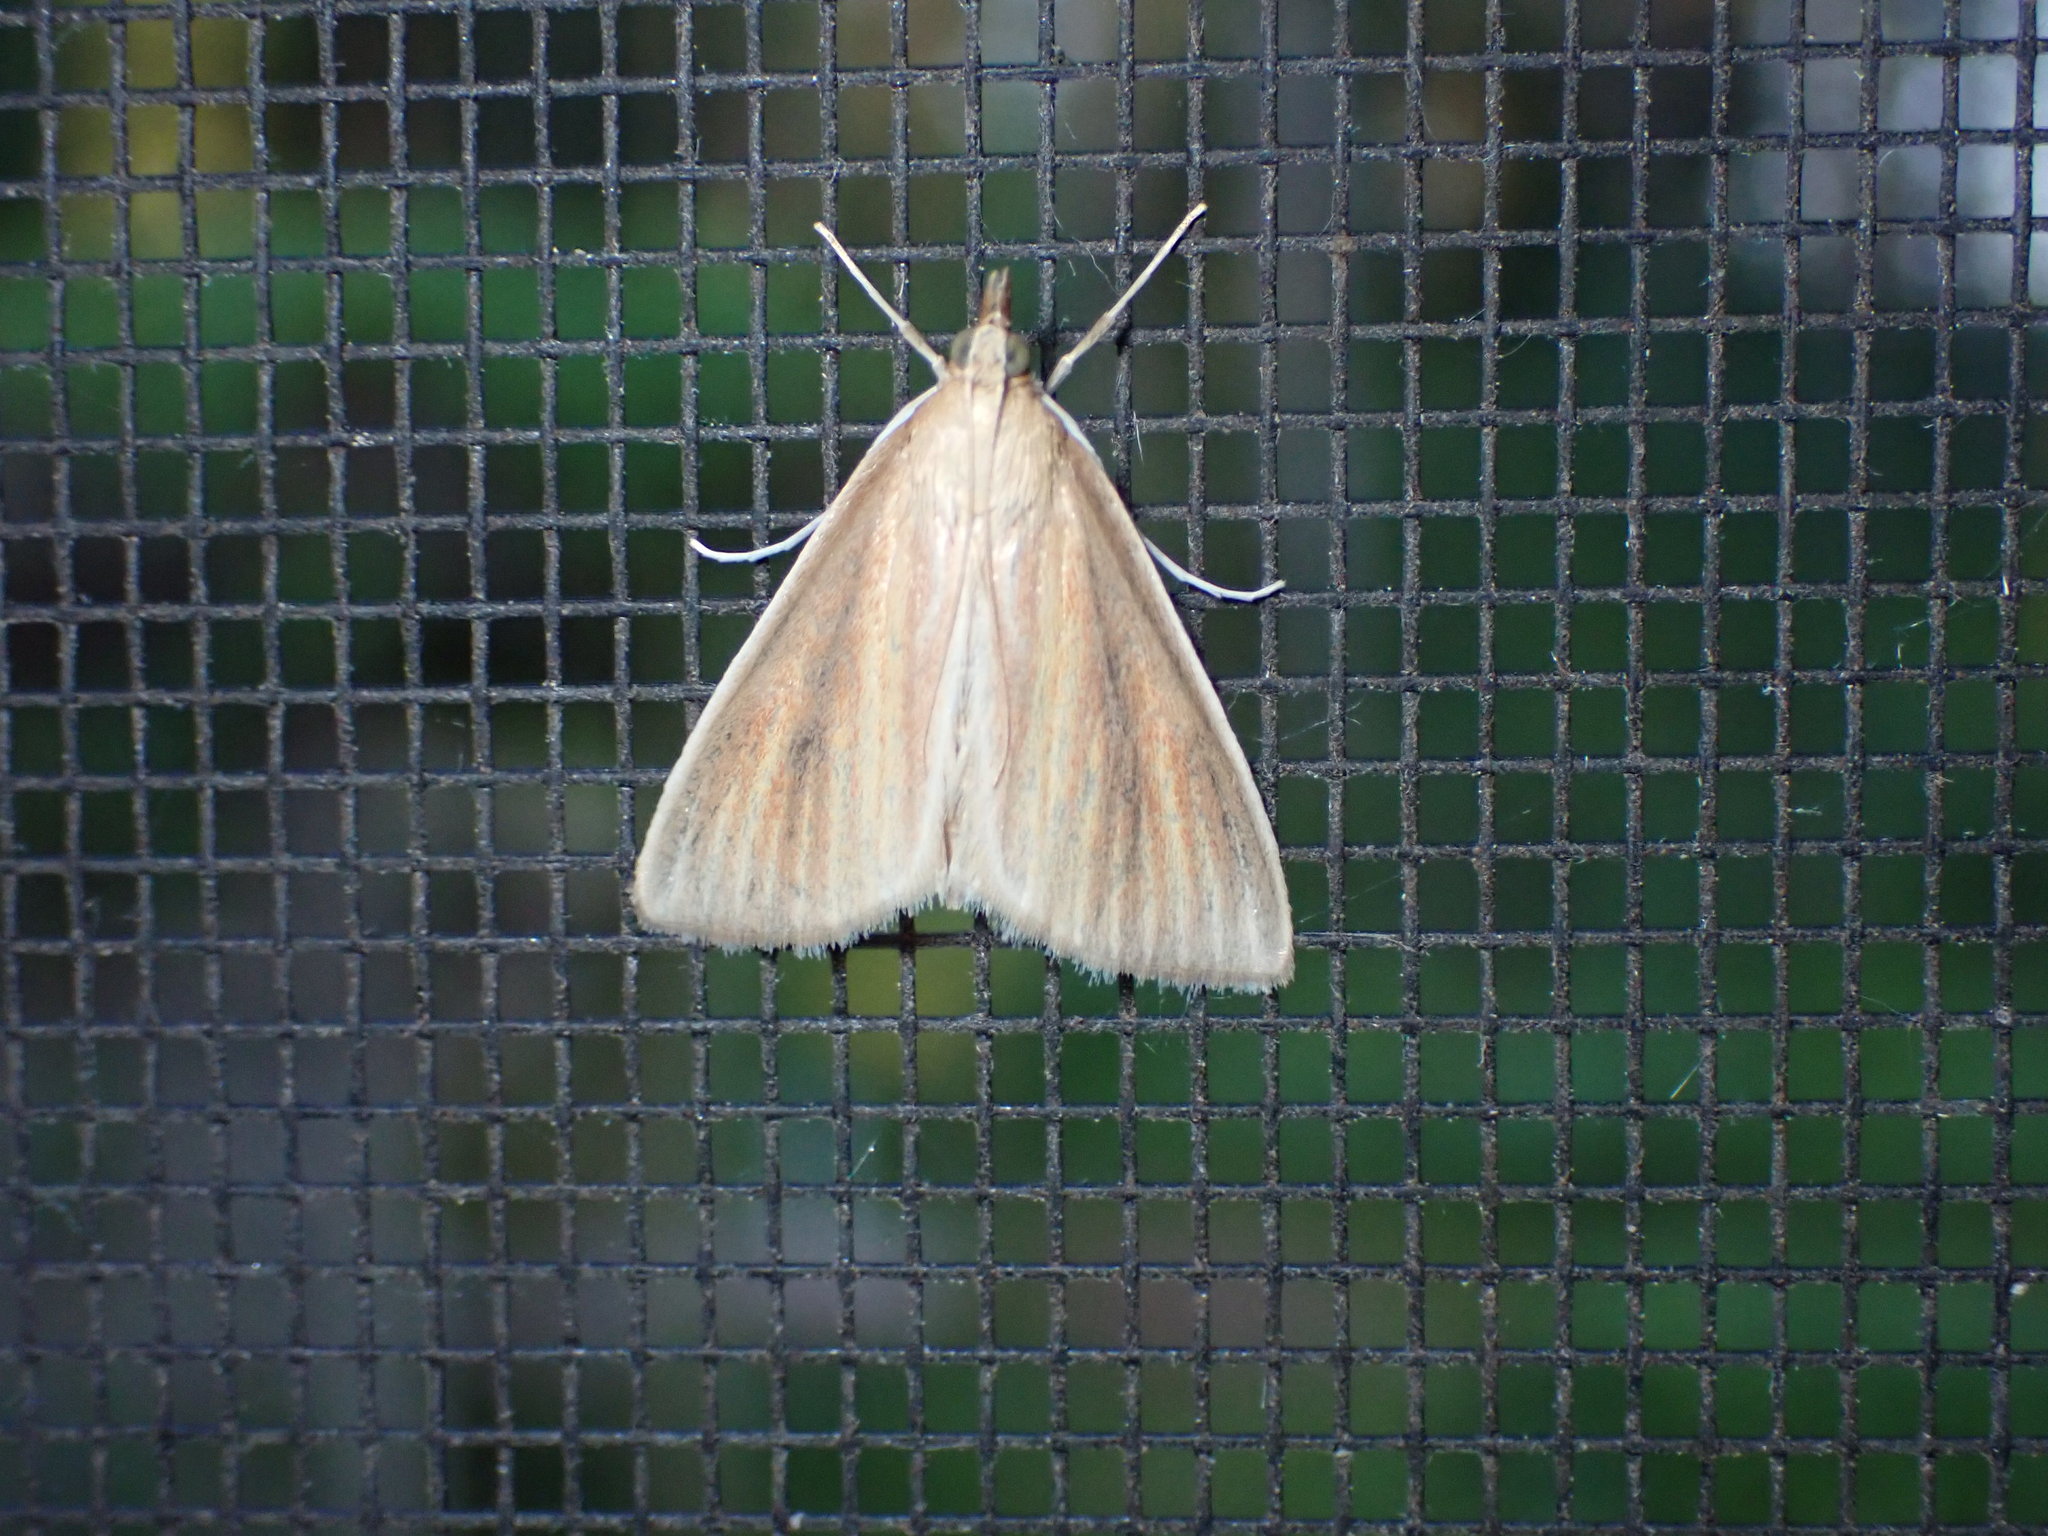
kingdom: Animalia
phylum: Arthropoda
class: Insecta
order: Lepidoptera
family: Crambidae
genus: Nascia
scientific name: Nascia acutellus
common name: Streaked orange moth
